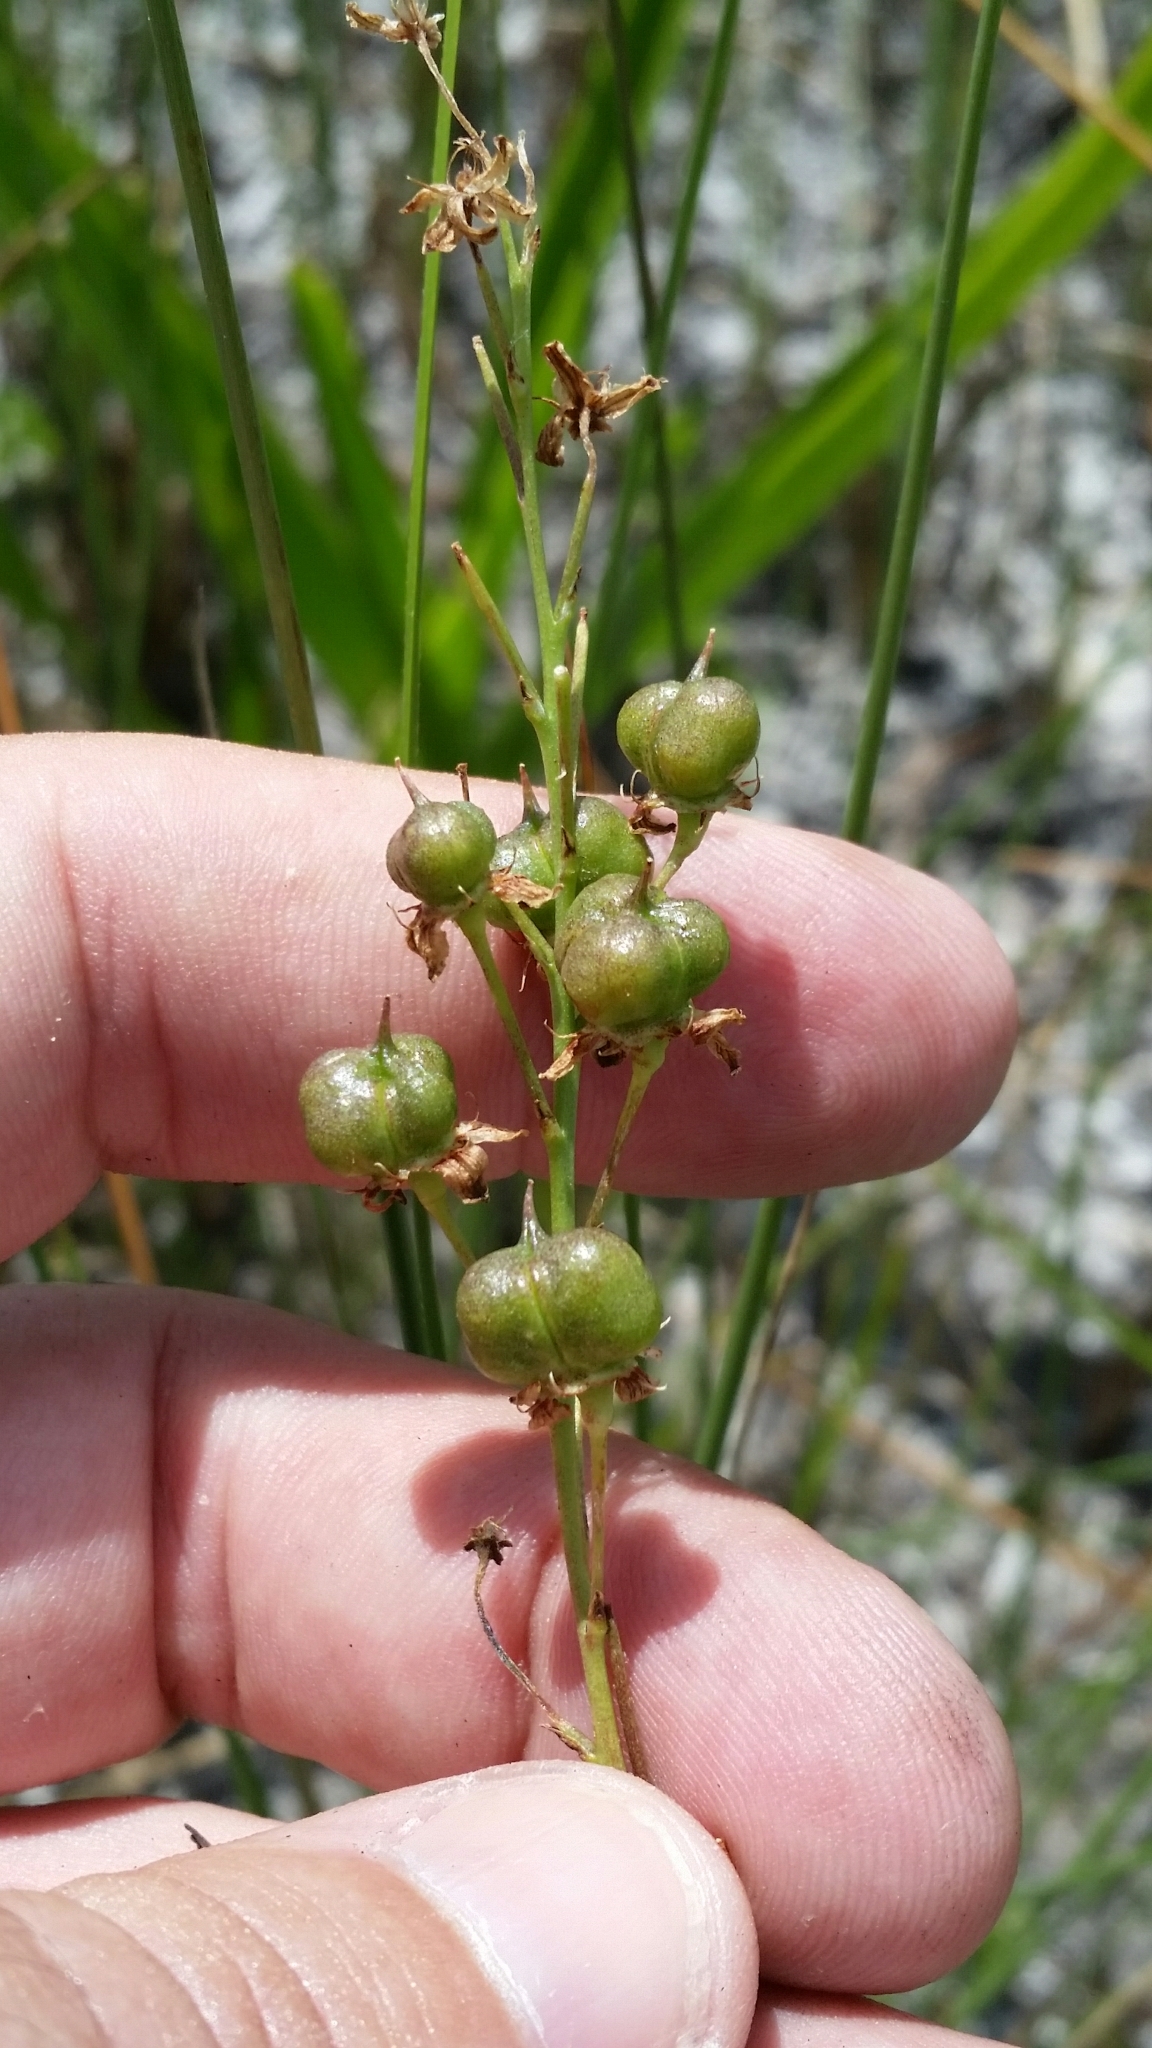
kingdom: Plantae
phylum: Tracheophyta
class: Liliopsida
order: Asparagales
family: Asparagaceae
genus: Schoenolirion
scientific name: Schoenolirion albiflorum
